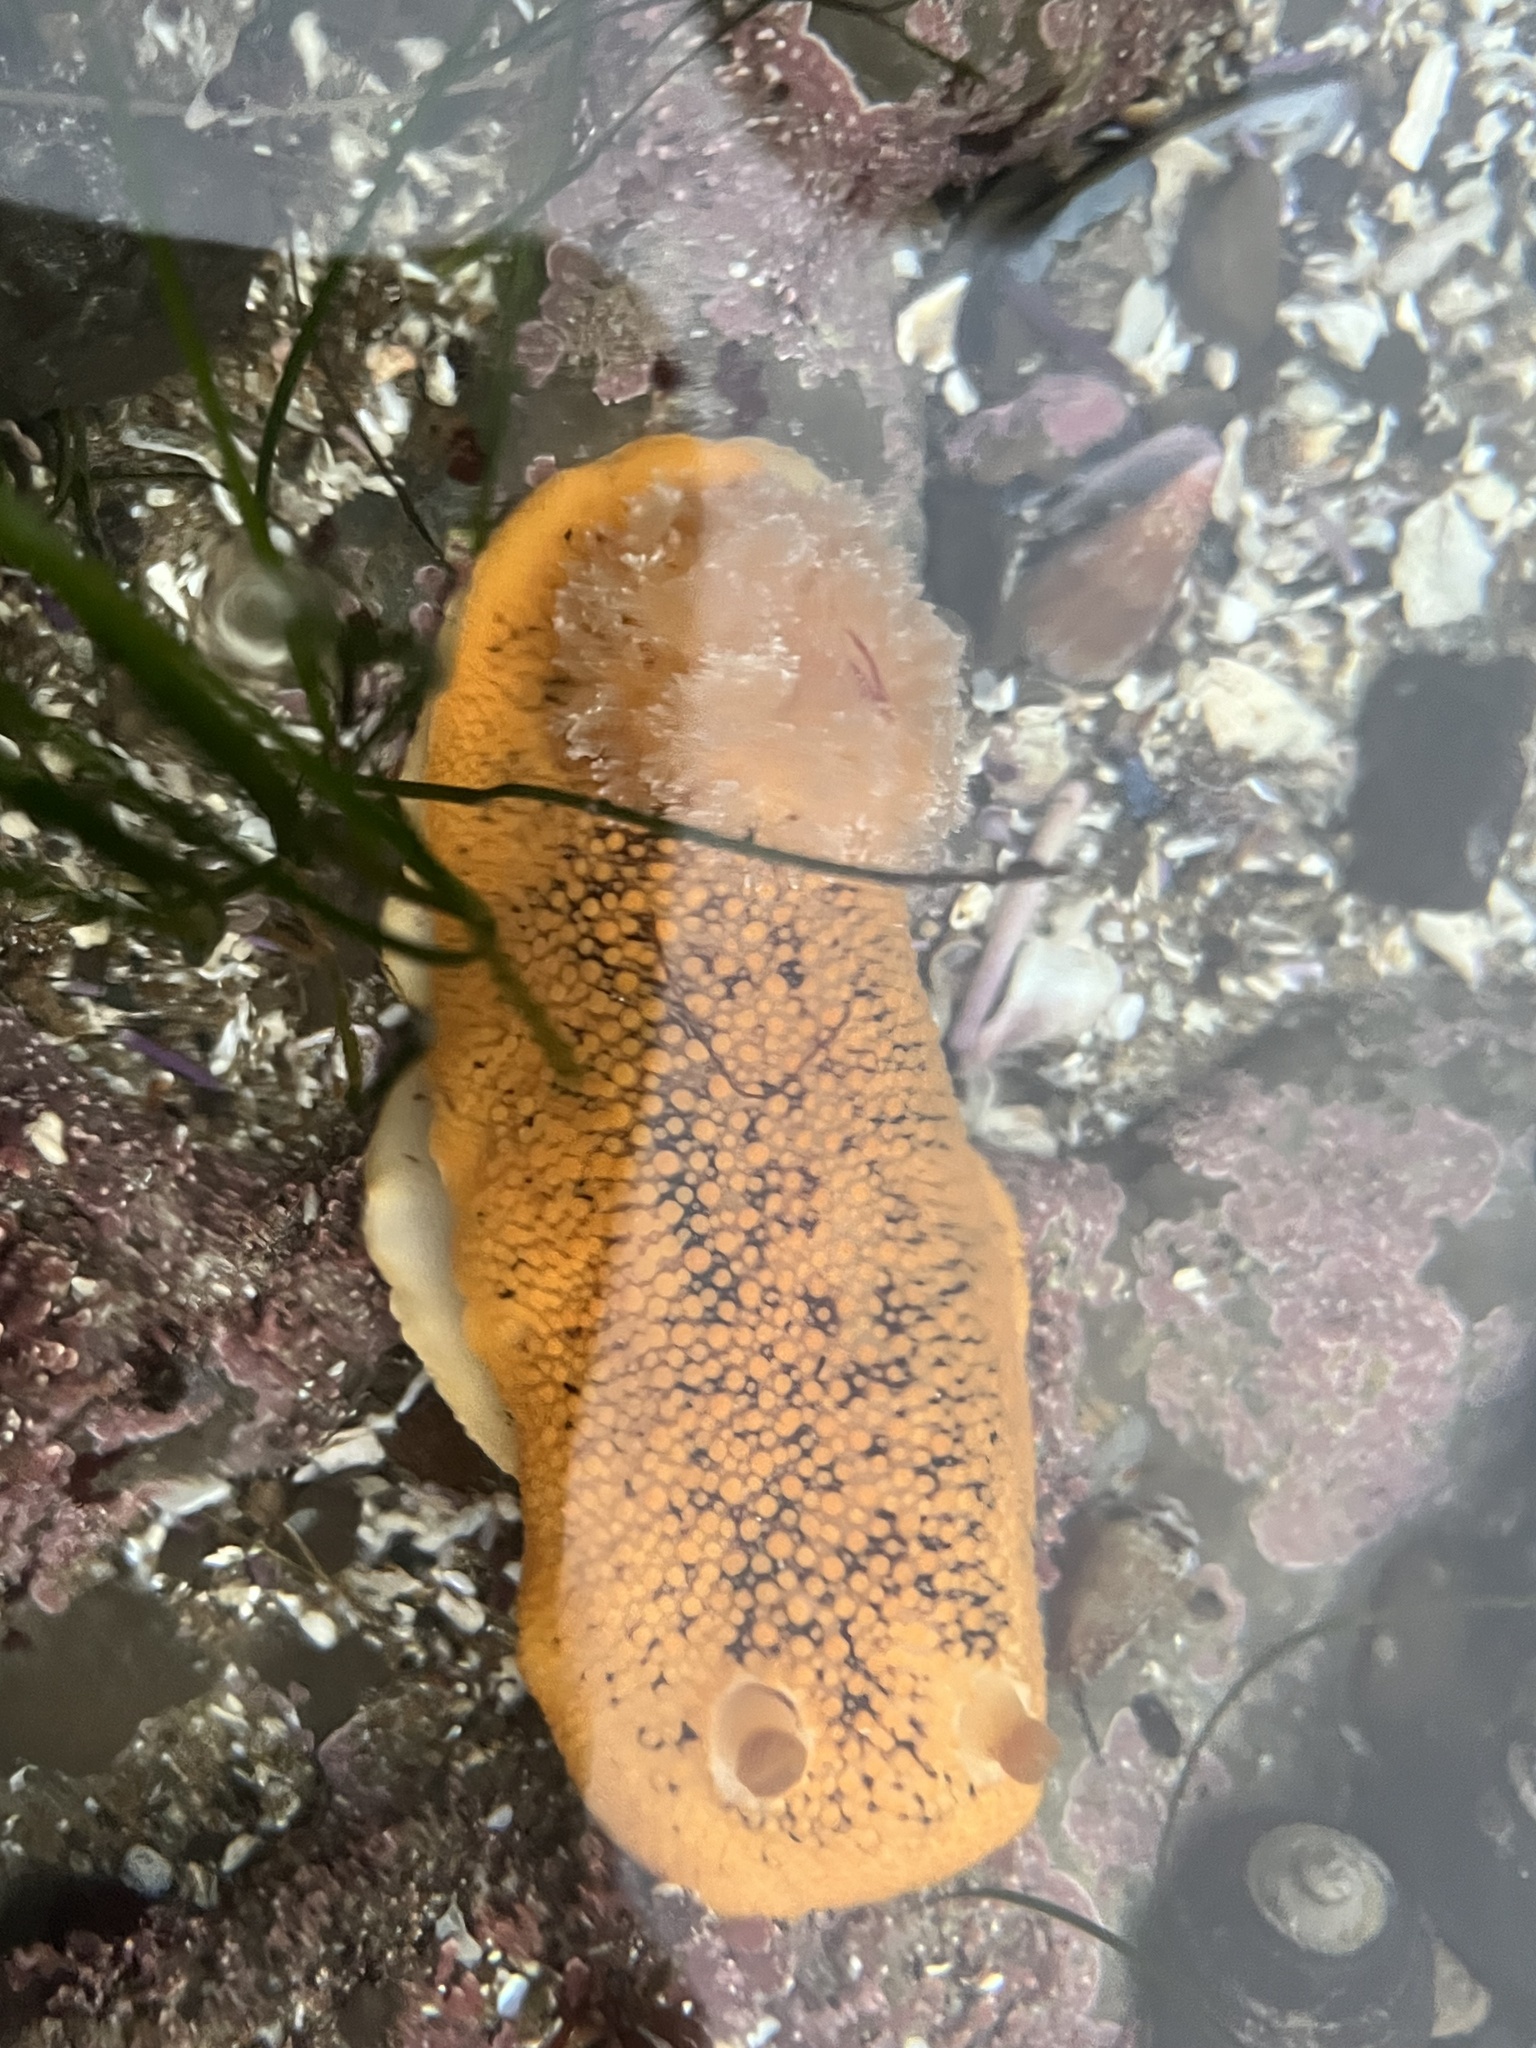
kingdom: Animalia
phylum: Mollusca
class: Gastropoda
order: Nudibranchia
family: Discodorididae
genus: Peltodoris
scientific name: Peltodoris nobilis
